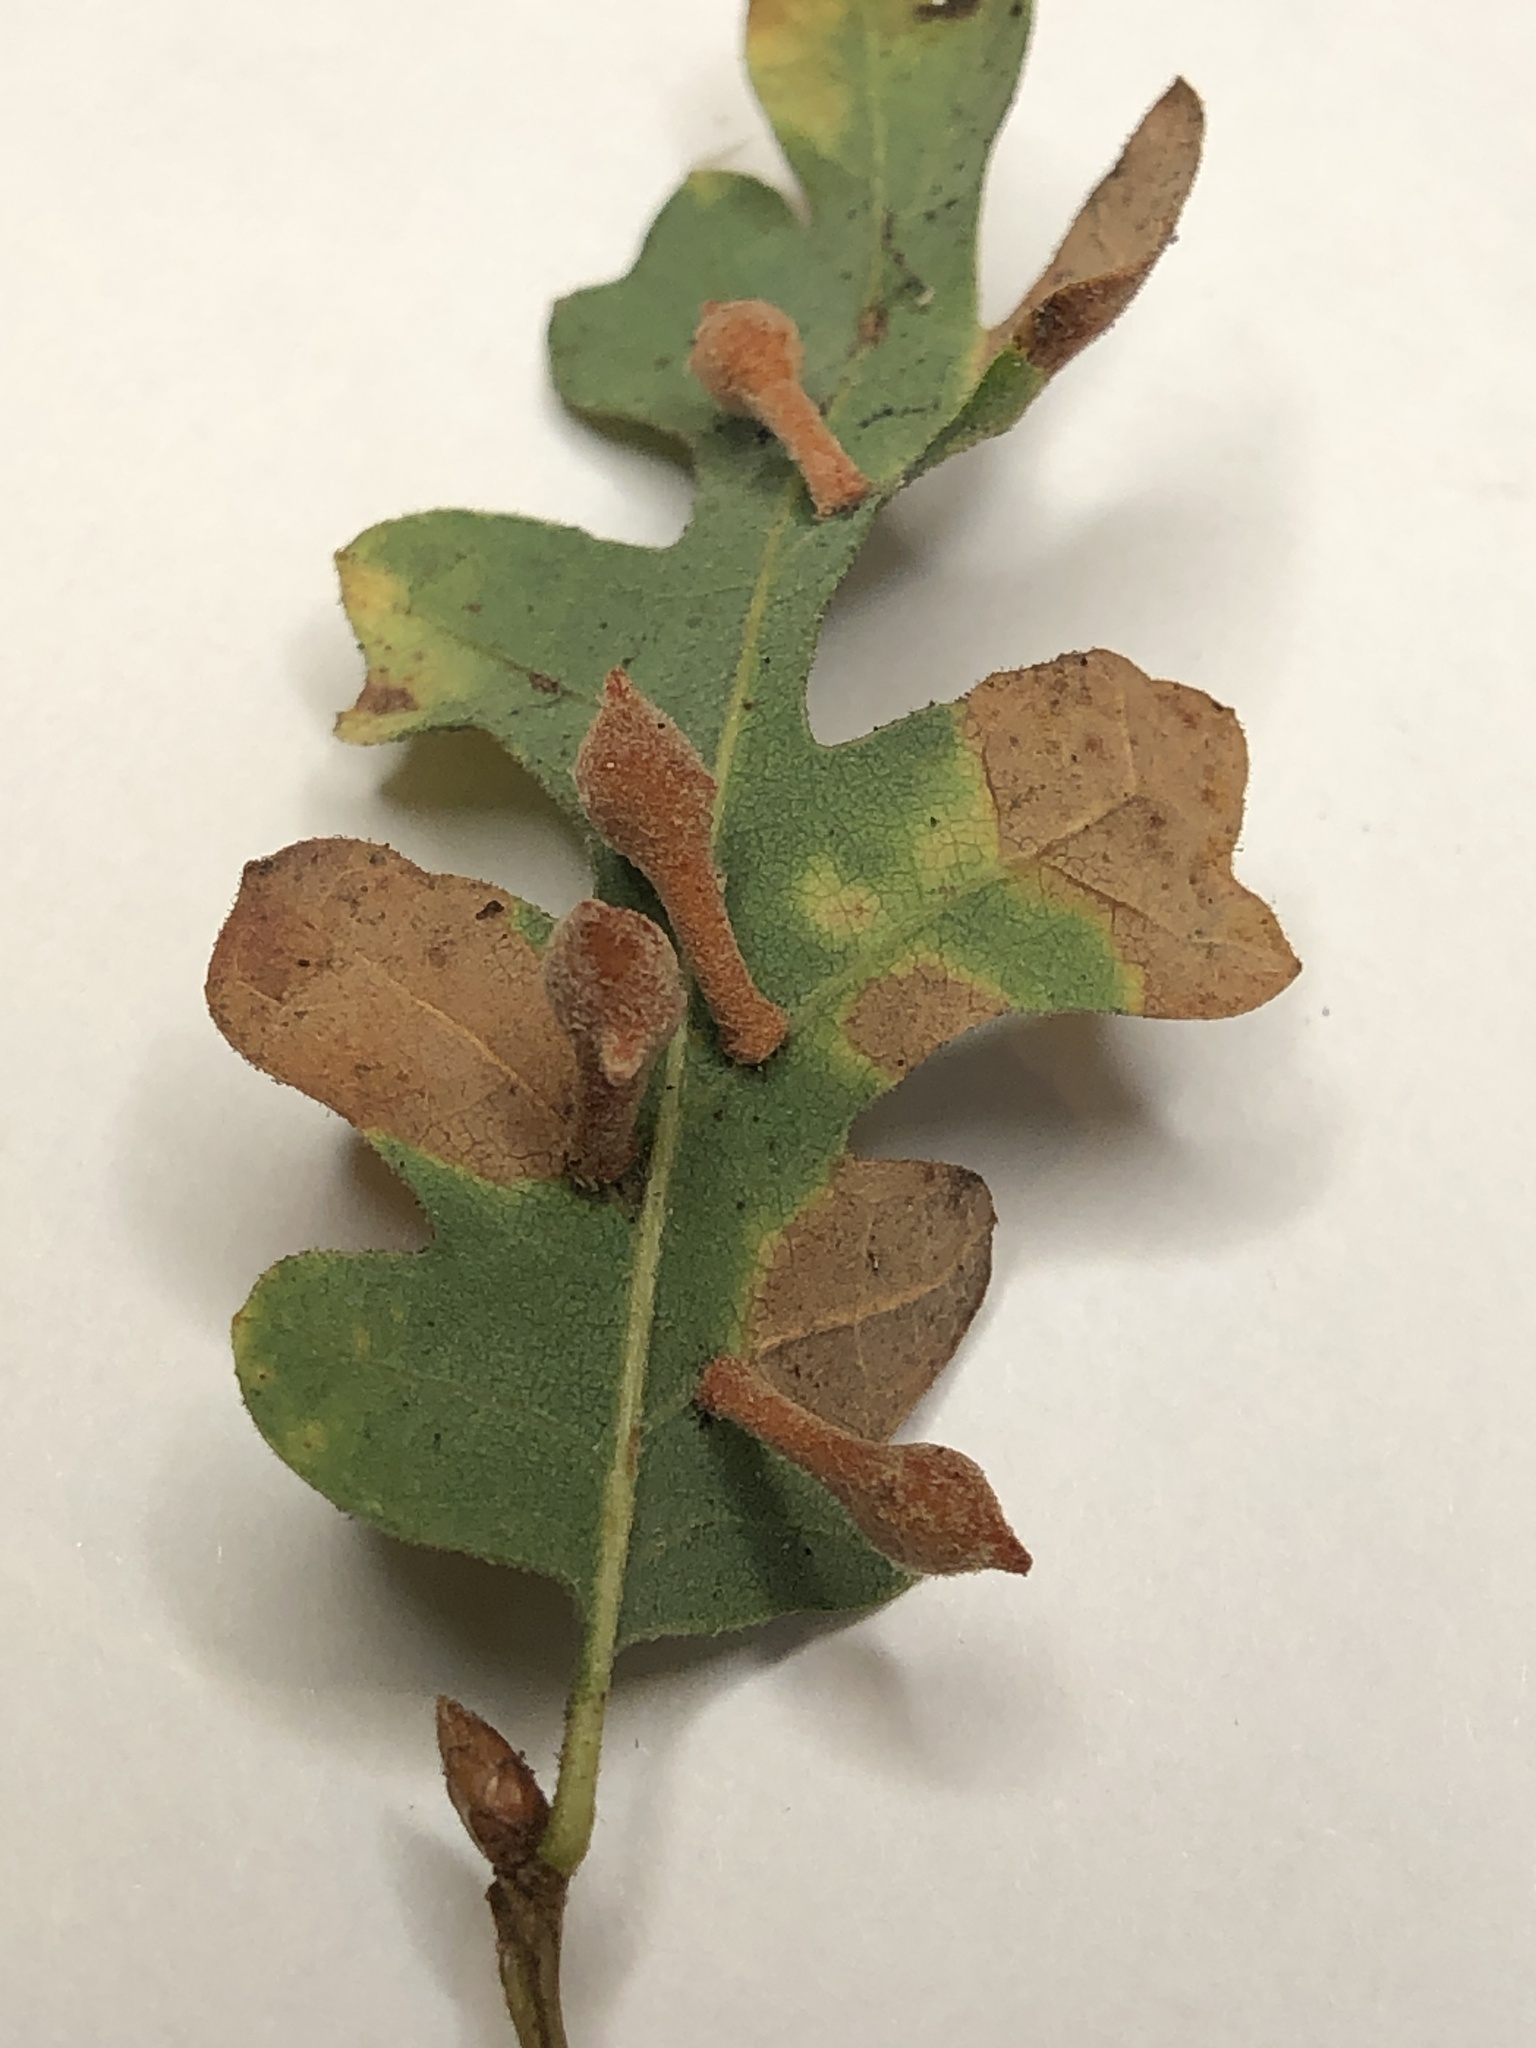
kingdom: Animalia
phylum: Arthropoda
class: Insecta
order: Hymenoptera
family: Cynipidae
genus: Atrusca
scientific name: Atrusca
